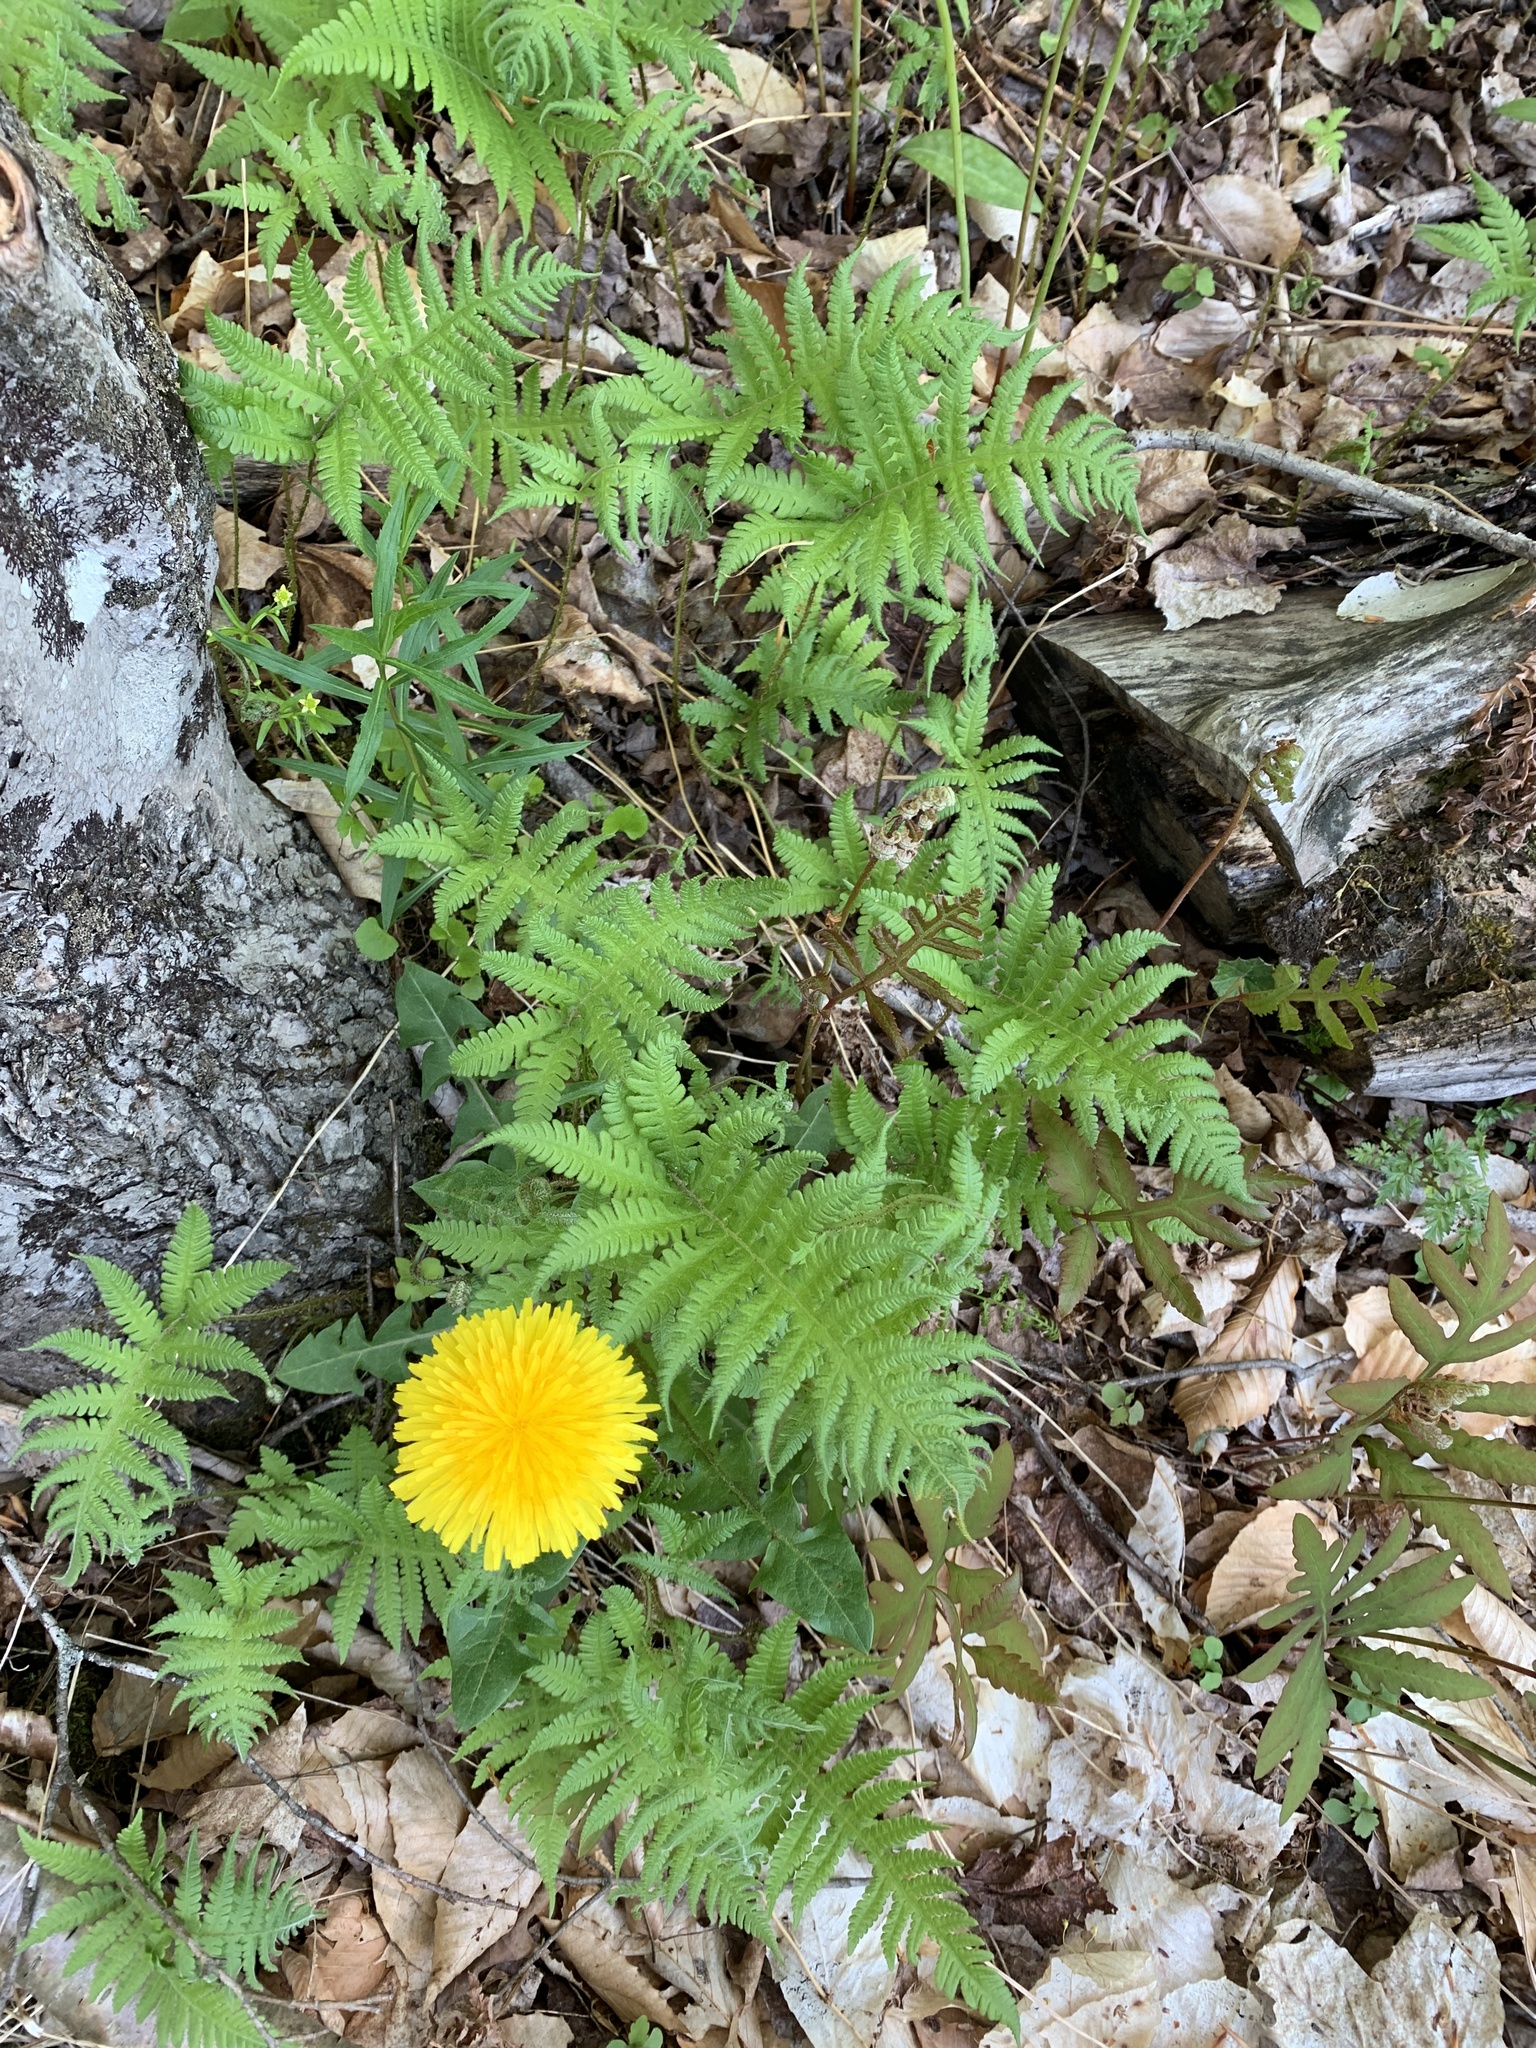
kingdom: Plantae
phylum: Tracheophyta
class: Polypodiopsida
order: Polypodiales
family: Thelypteridaceae
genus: Phegopteris
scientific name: Phegopteris connectilis
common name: Beech fern
